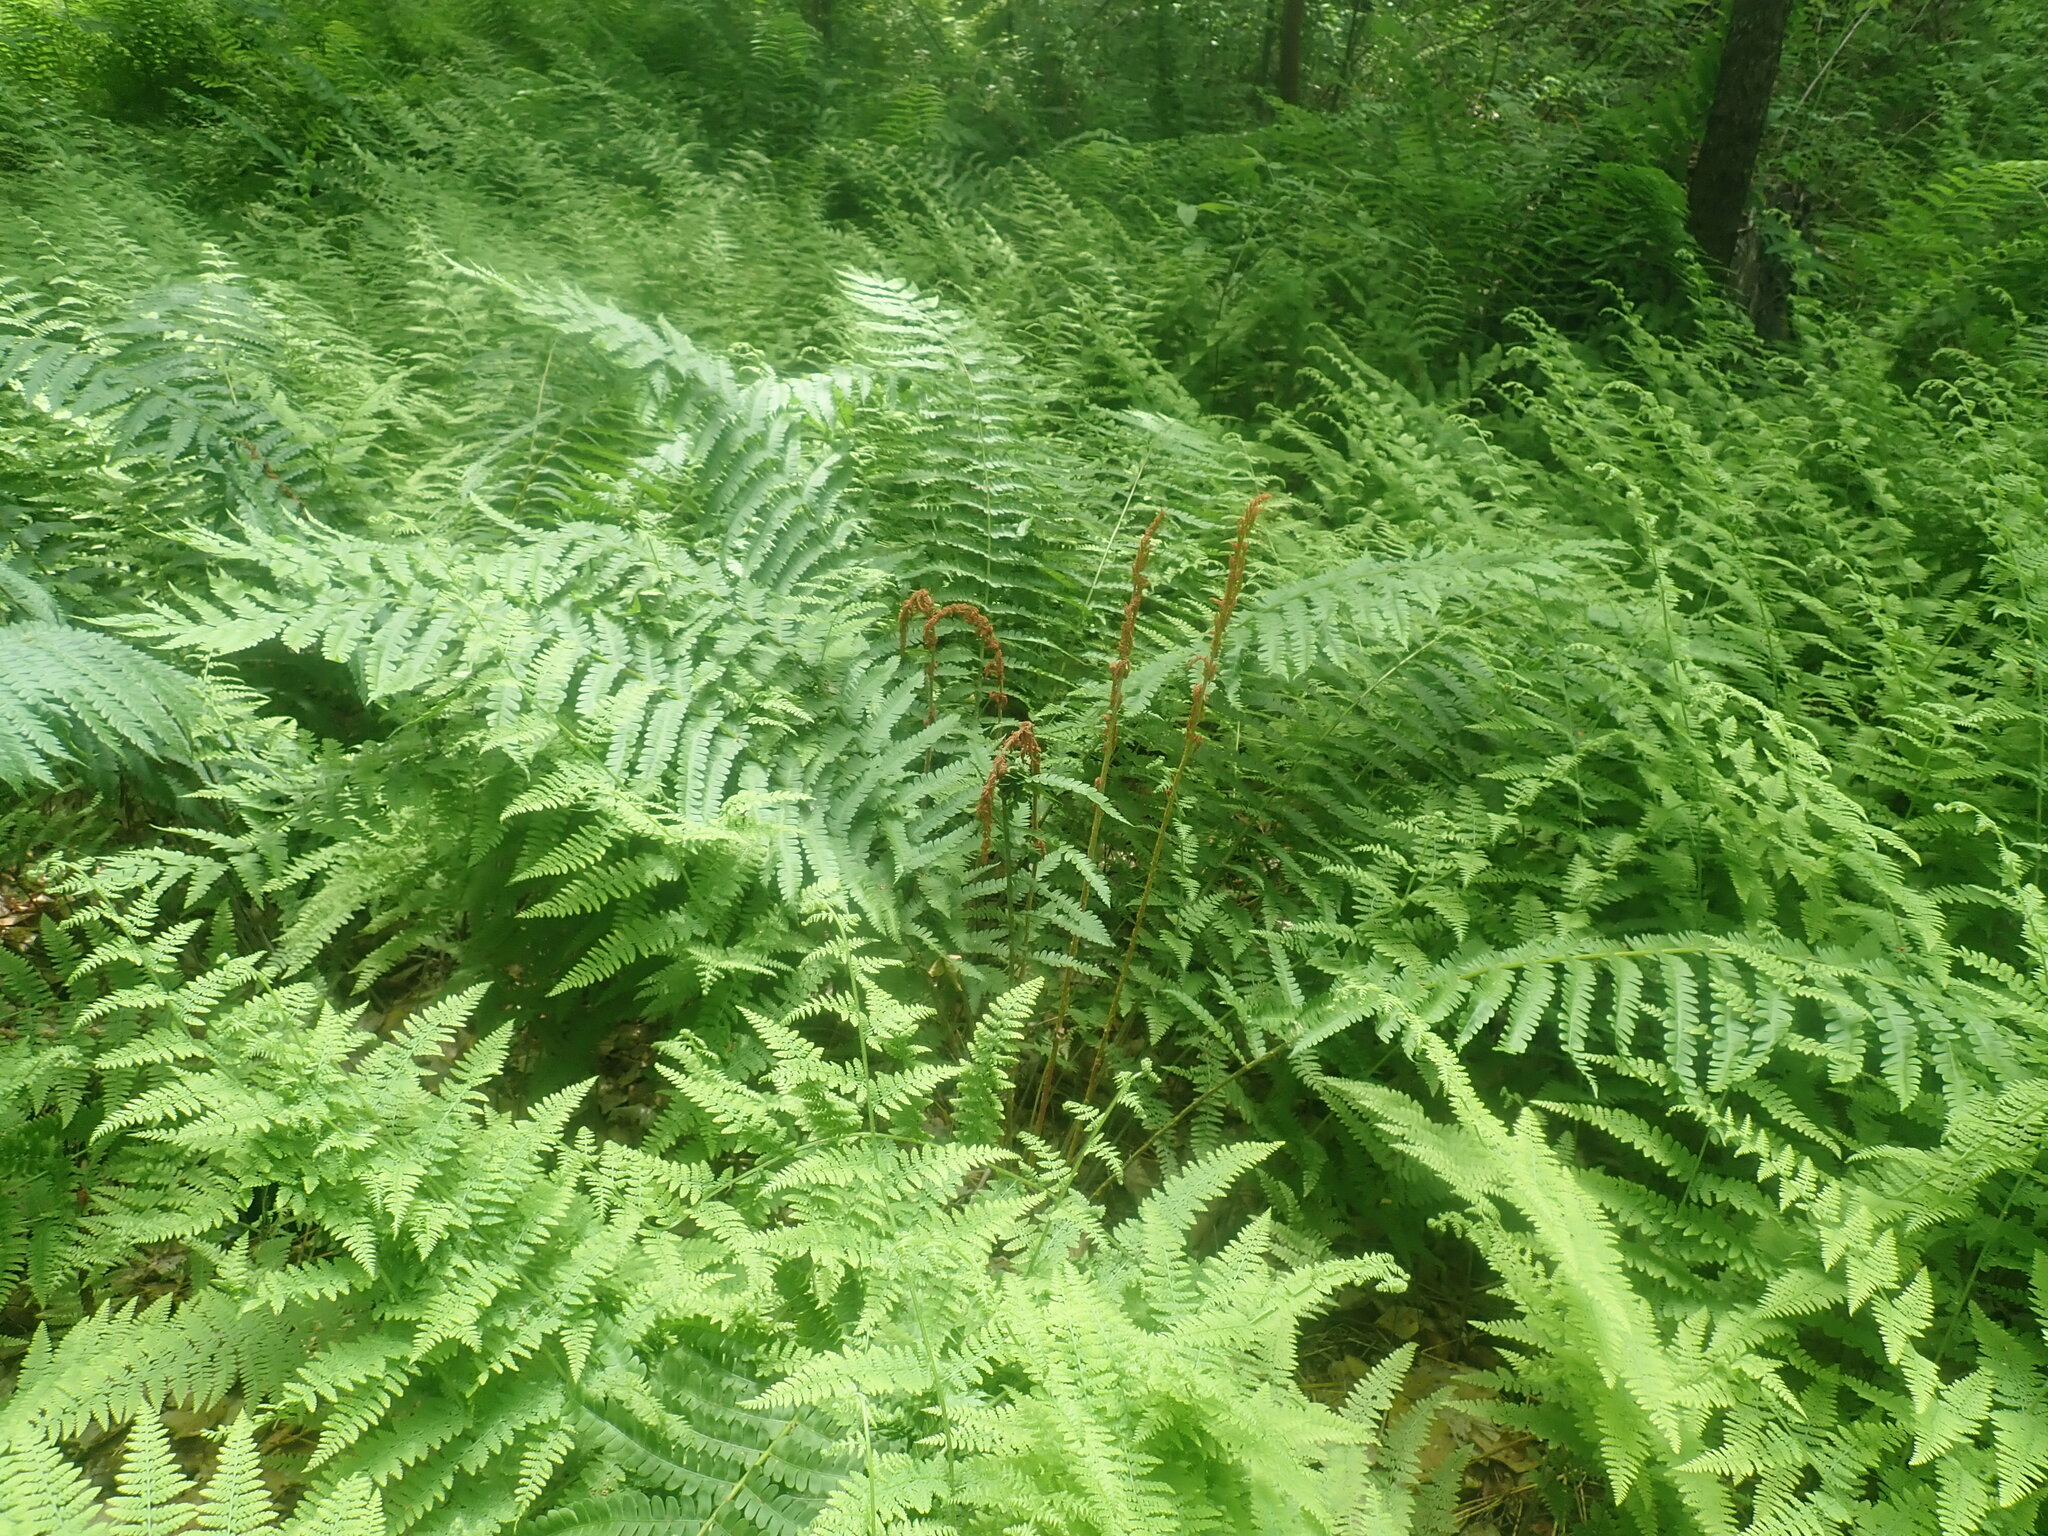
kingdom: Plantae
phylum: Tracheophyta
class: Polypodiopsida
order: Osmundales
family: Osmundaceae
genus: Osmundastrum
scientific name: Osmundastrum cinnamomeum
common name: Cinnamon fern
